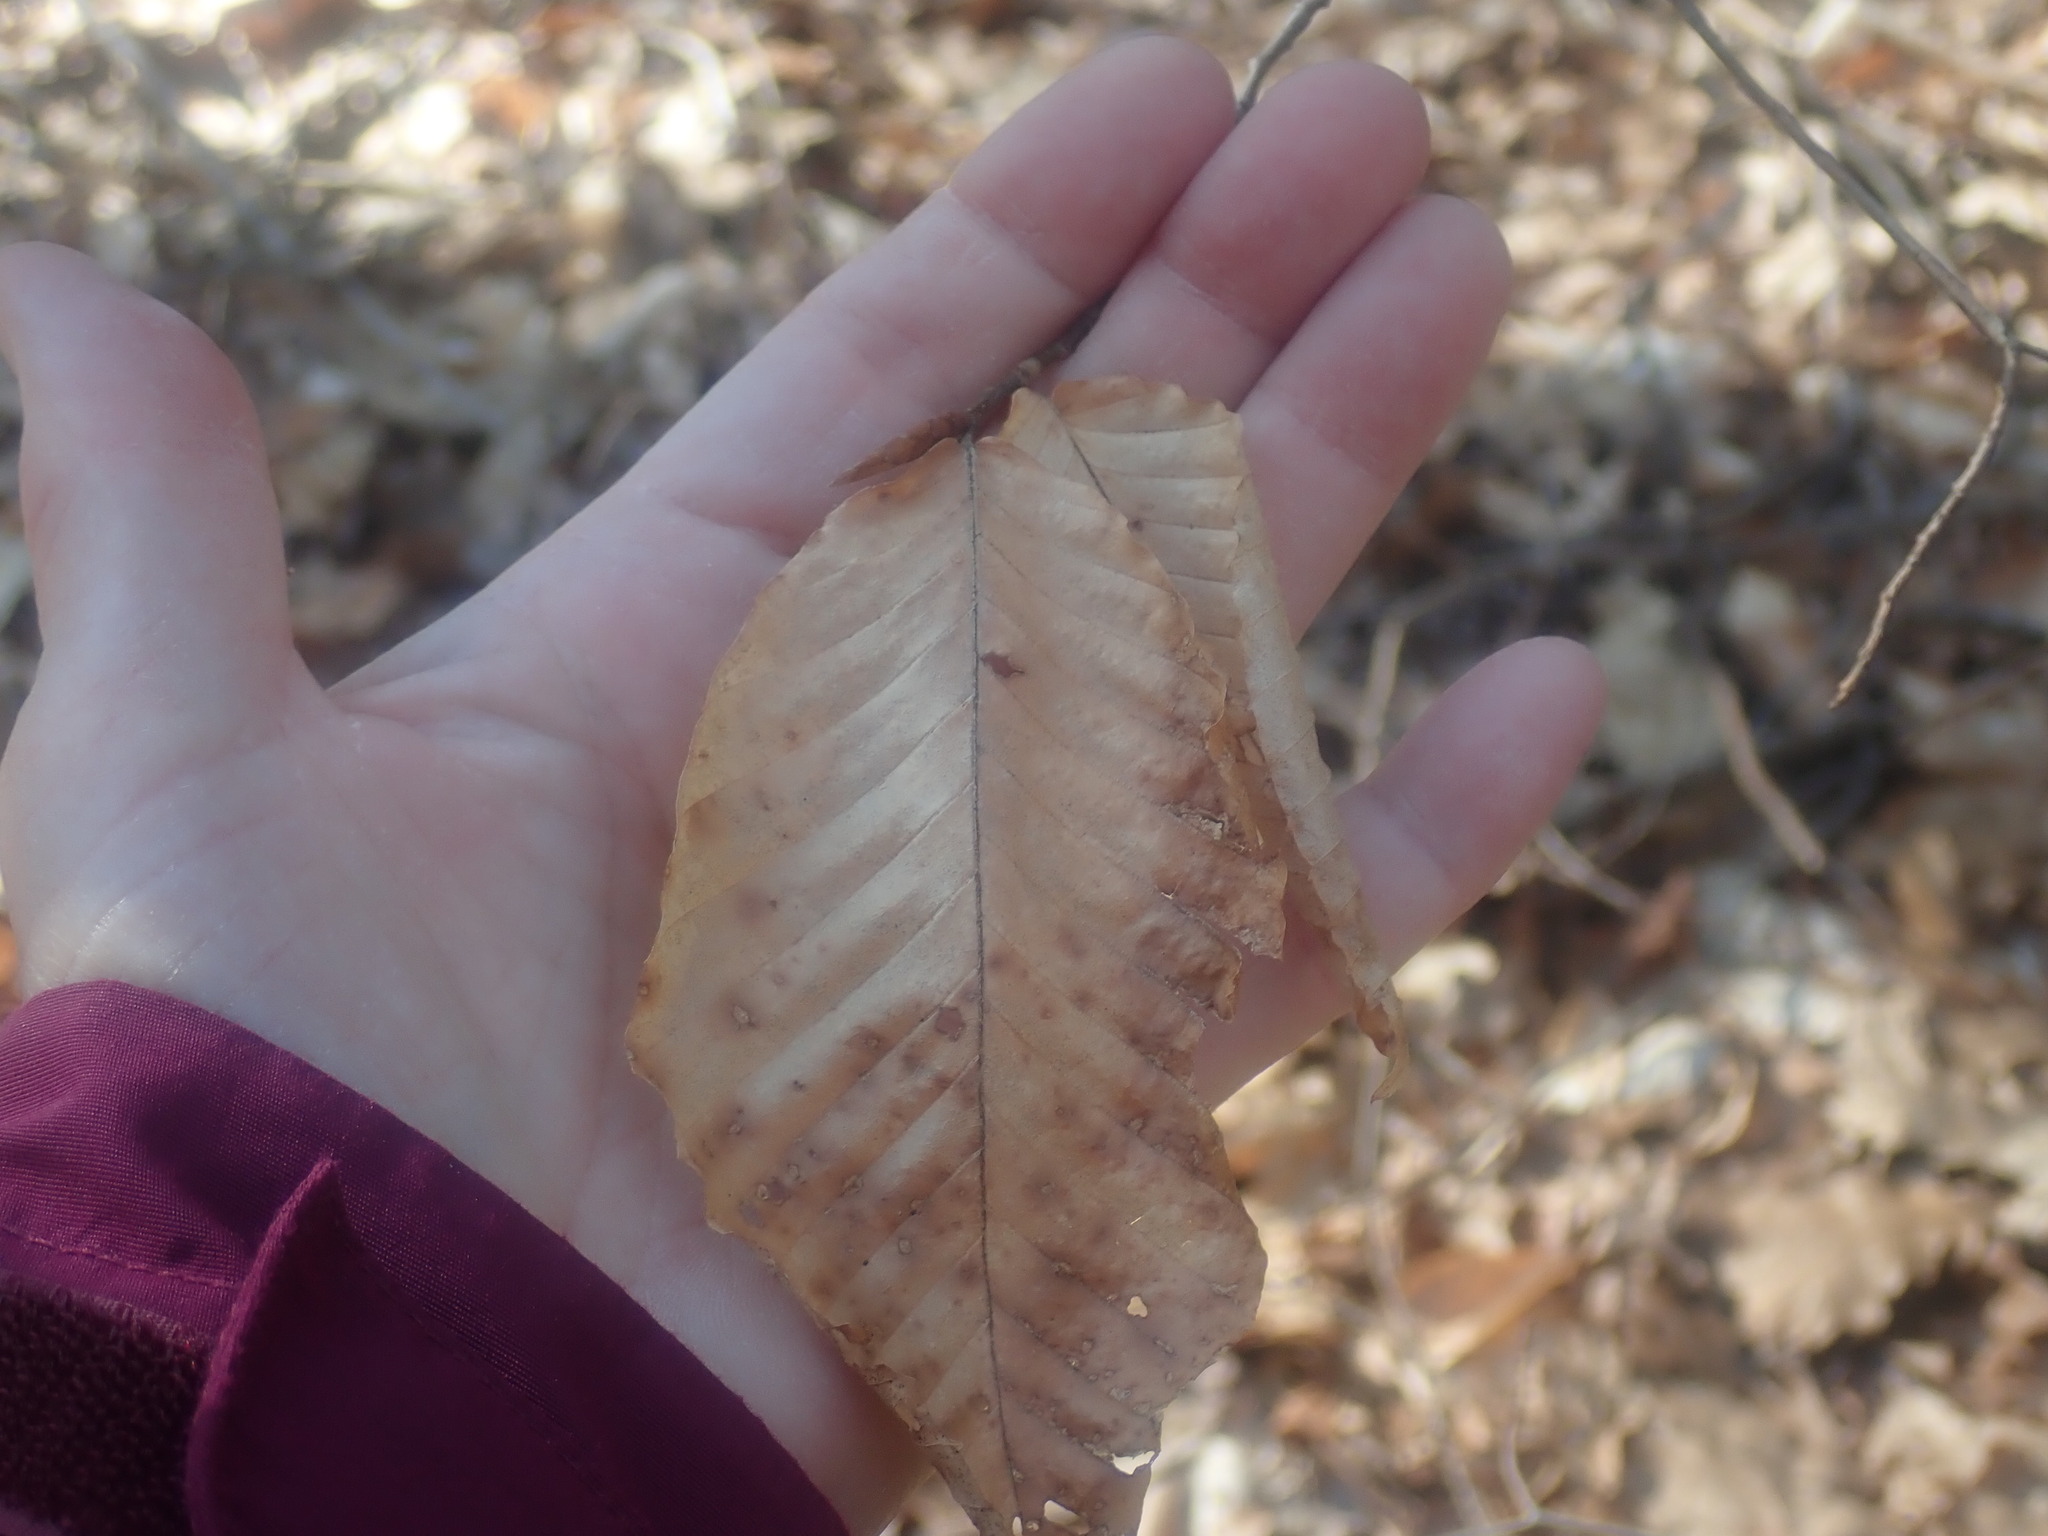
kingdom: Plantae
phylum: Tracheophyta
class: Magnoliopsida
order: Fagales
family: Fagaceae
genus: Fagus
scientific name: Fagus grandifolia
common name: American beech
